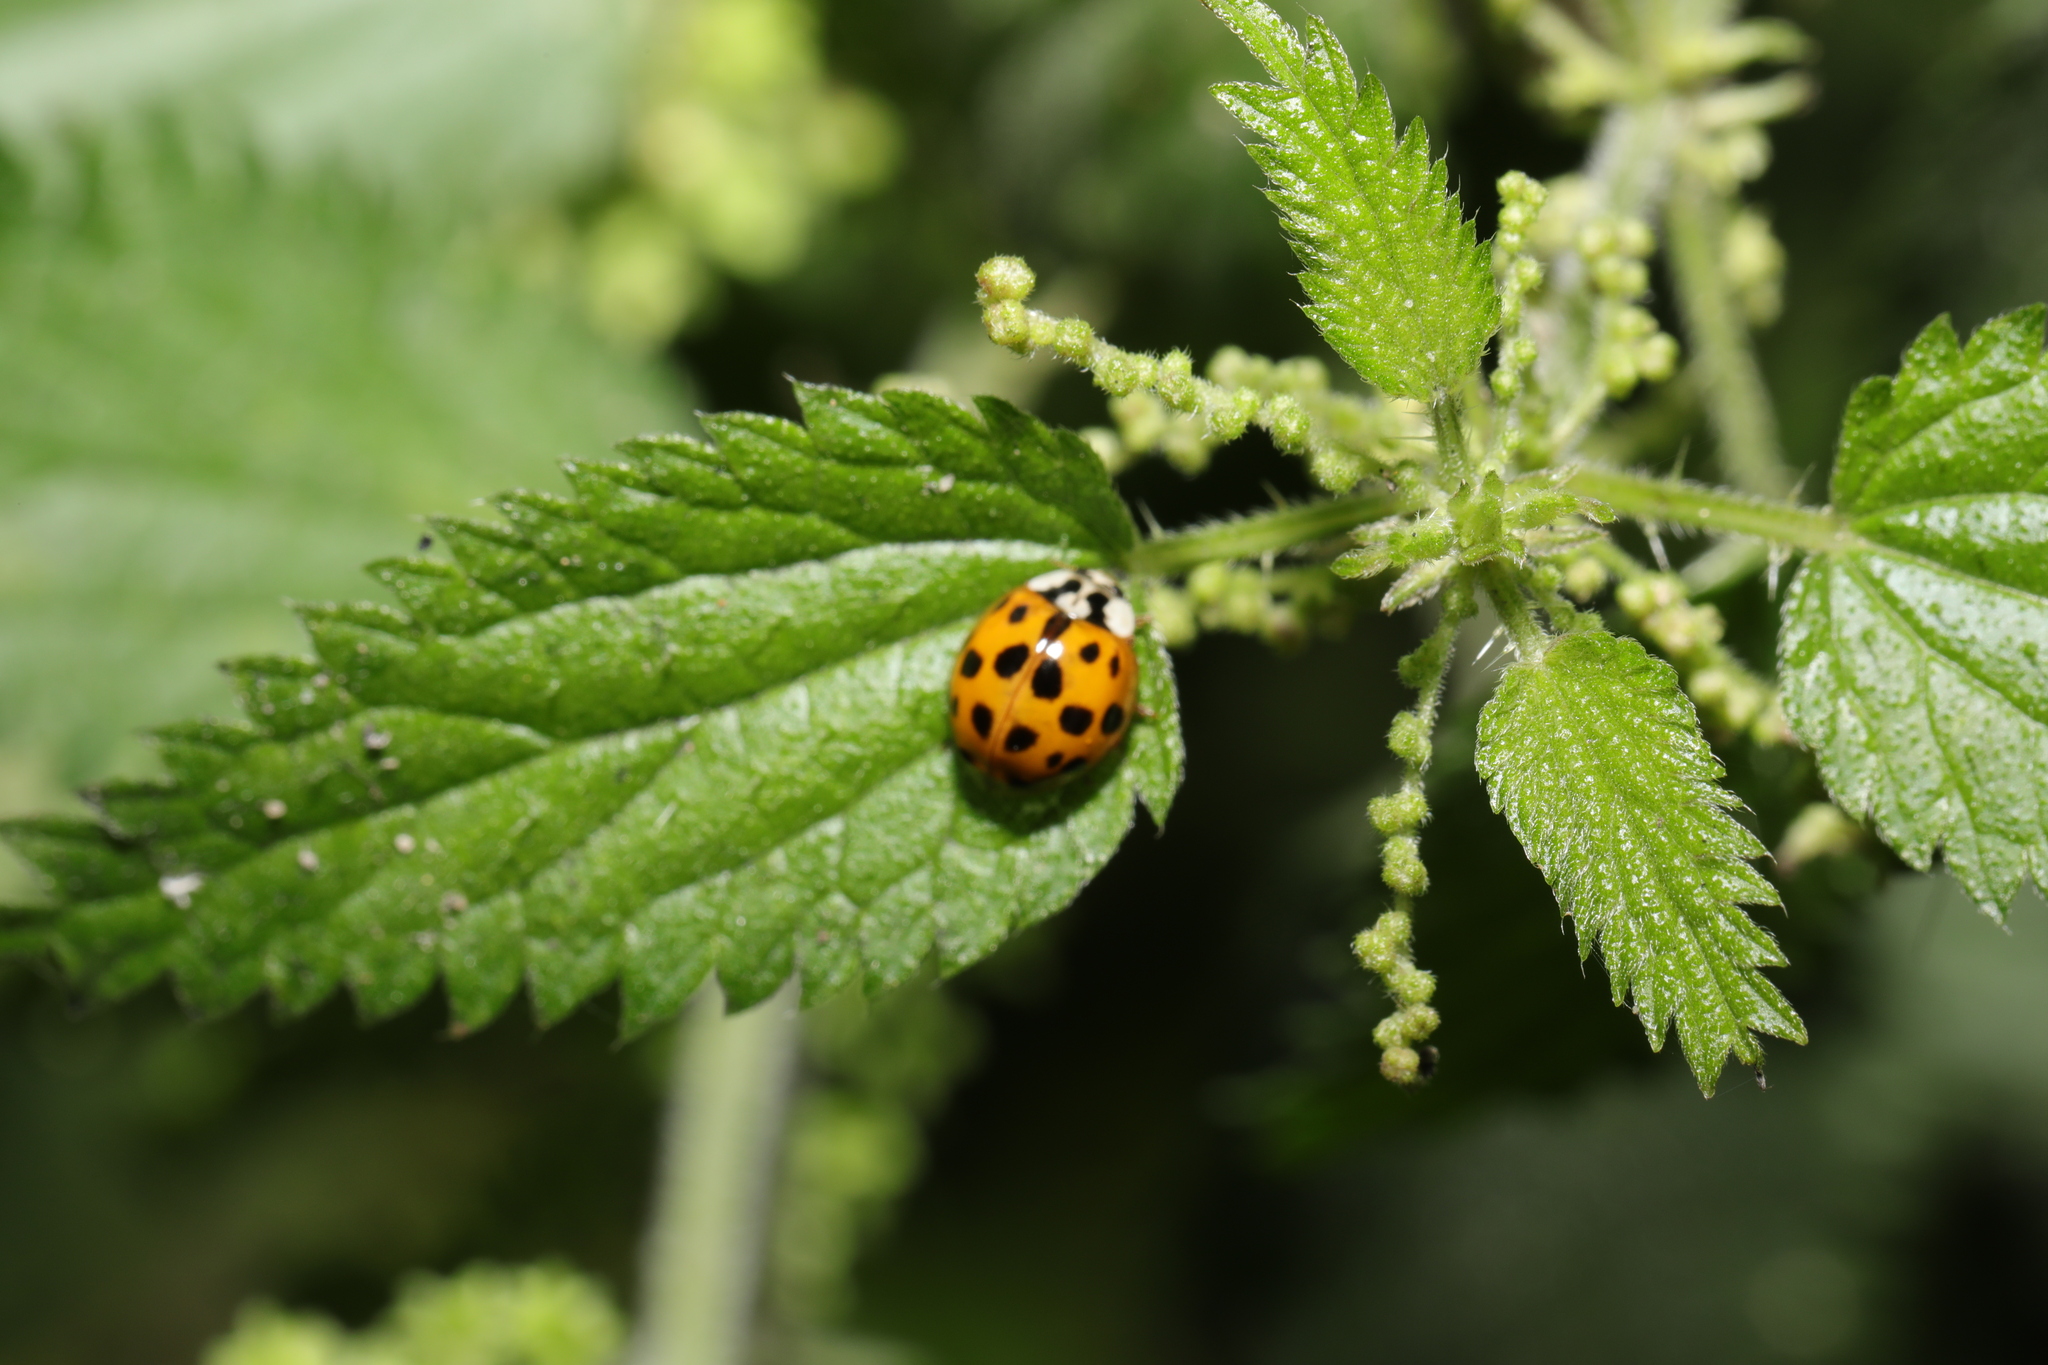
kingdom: Animalia
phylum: Arthropoda
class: Insecta
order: Coleoptera
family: Coccinellidae
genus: Harmonia
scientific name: Harmonia axyridis
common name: Harlequin ladybird
